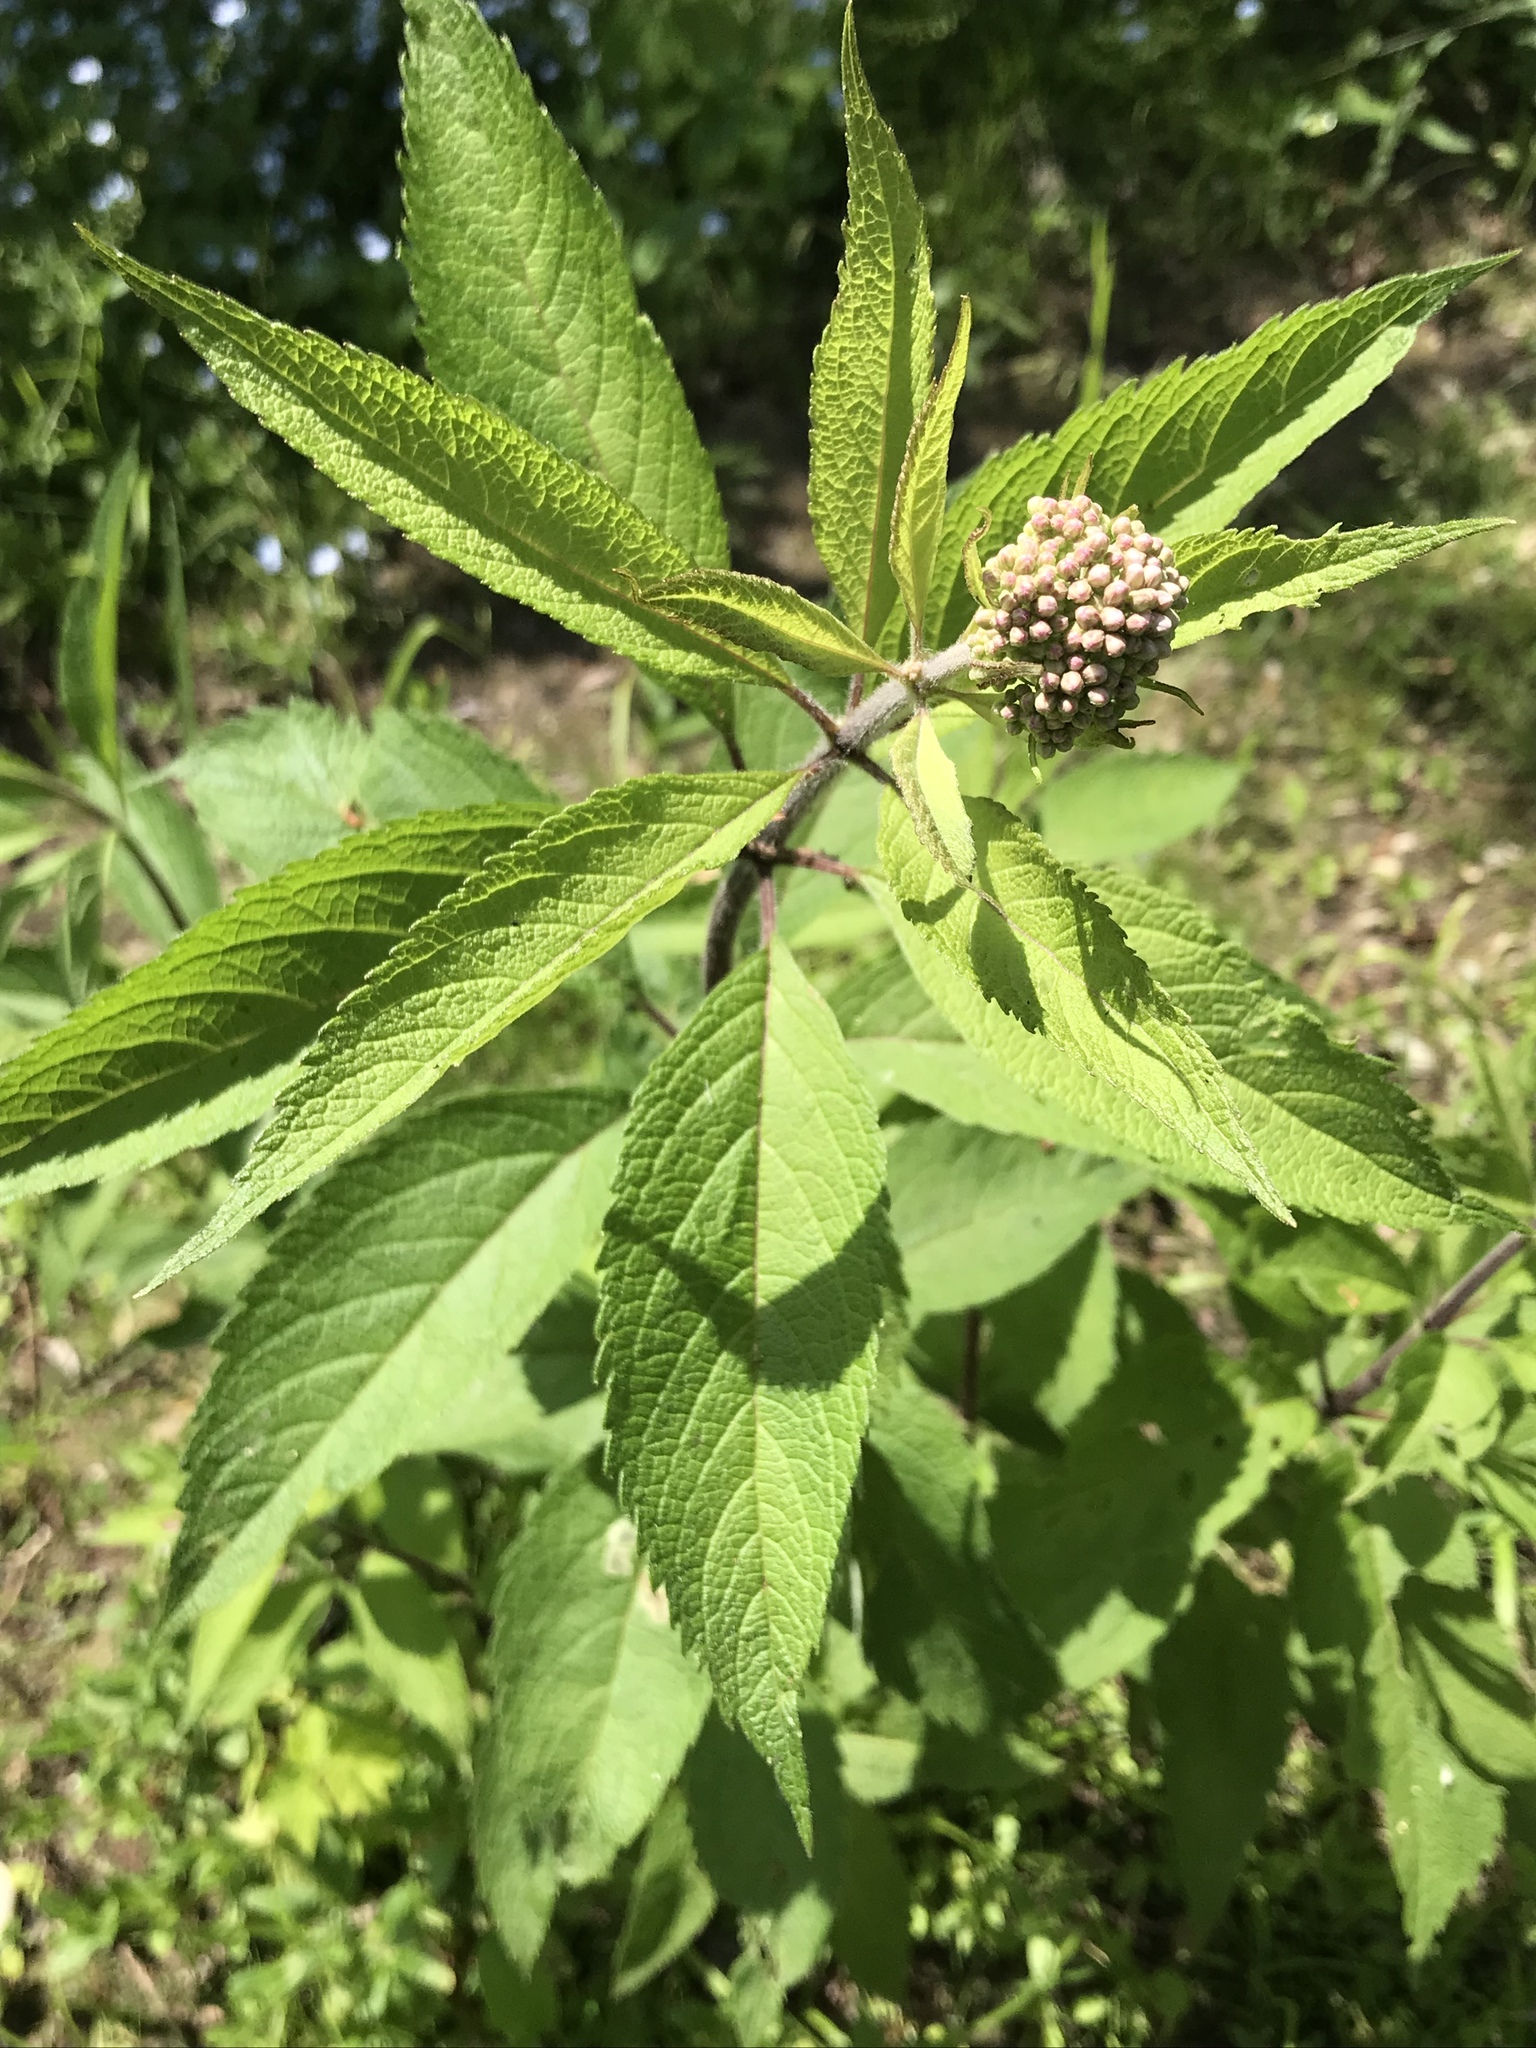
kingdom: Plantae
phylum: Tracheophyta
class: Magnoliopsida
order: Asterales
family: Asteraceae
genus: Eutrochium
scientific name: Eutrochium maculatum
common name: Spotted joe pye weed
